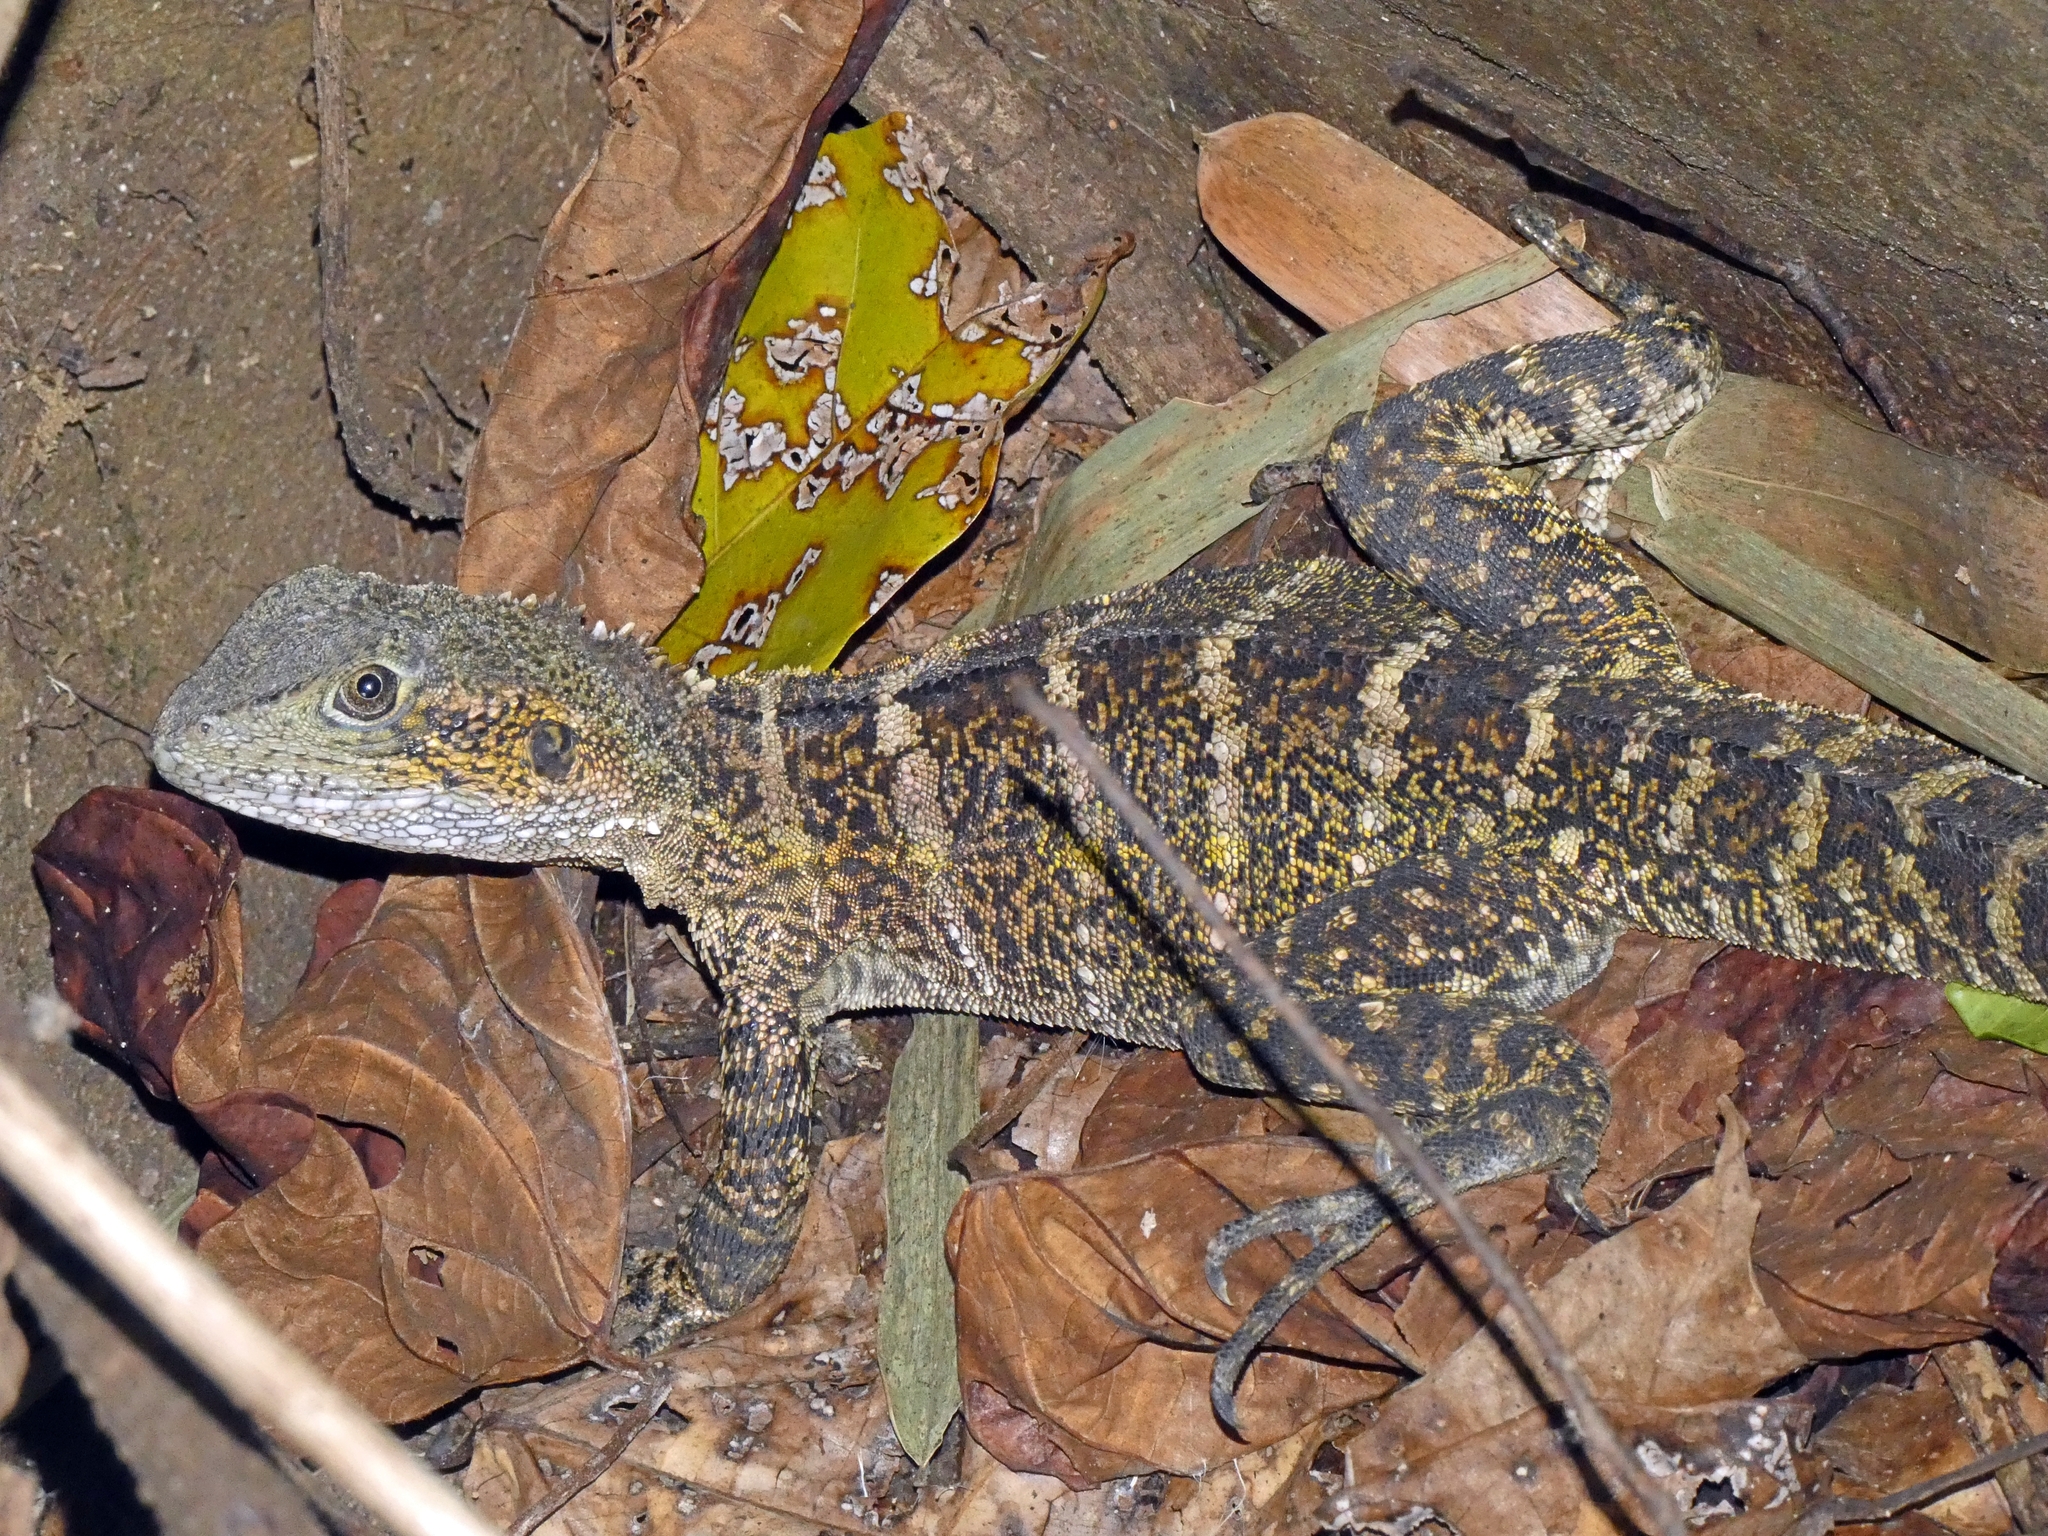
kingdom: Animalia
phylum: Chordata
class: Squamata
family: Agamidae
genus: Intellagama
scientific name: Intellagama lesueurii
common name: Eastern water dragon
